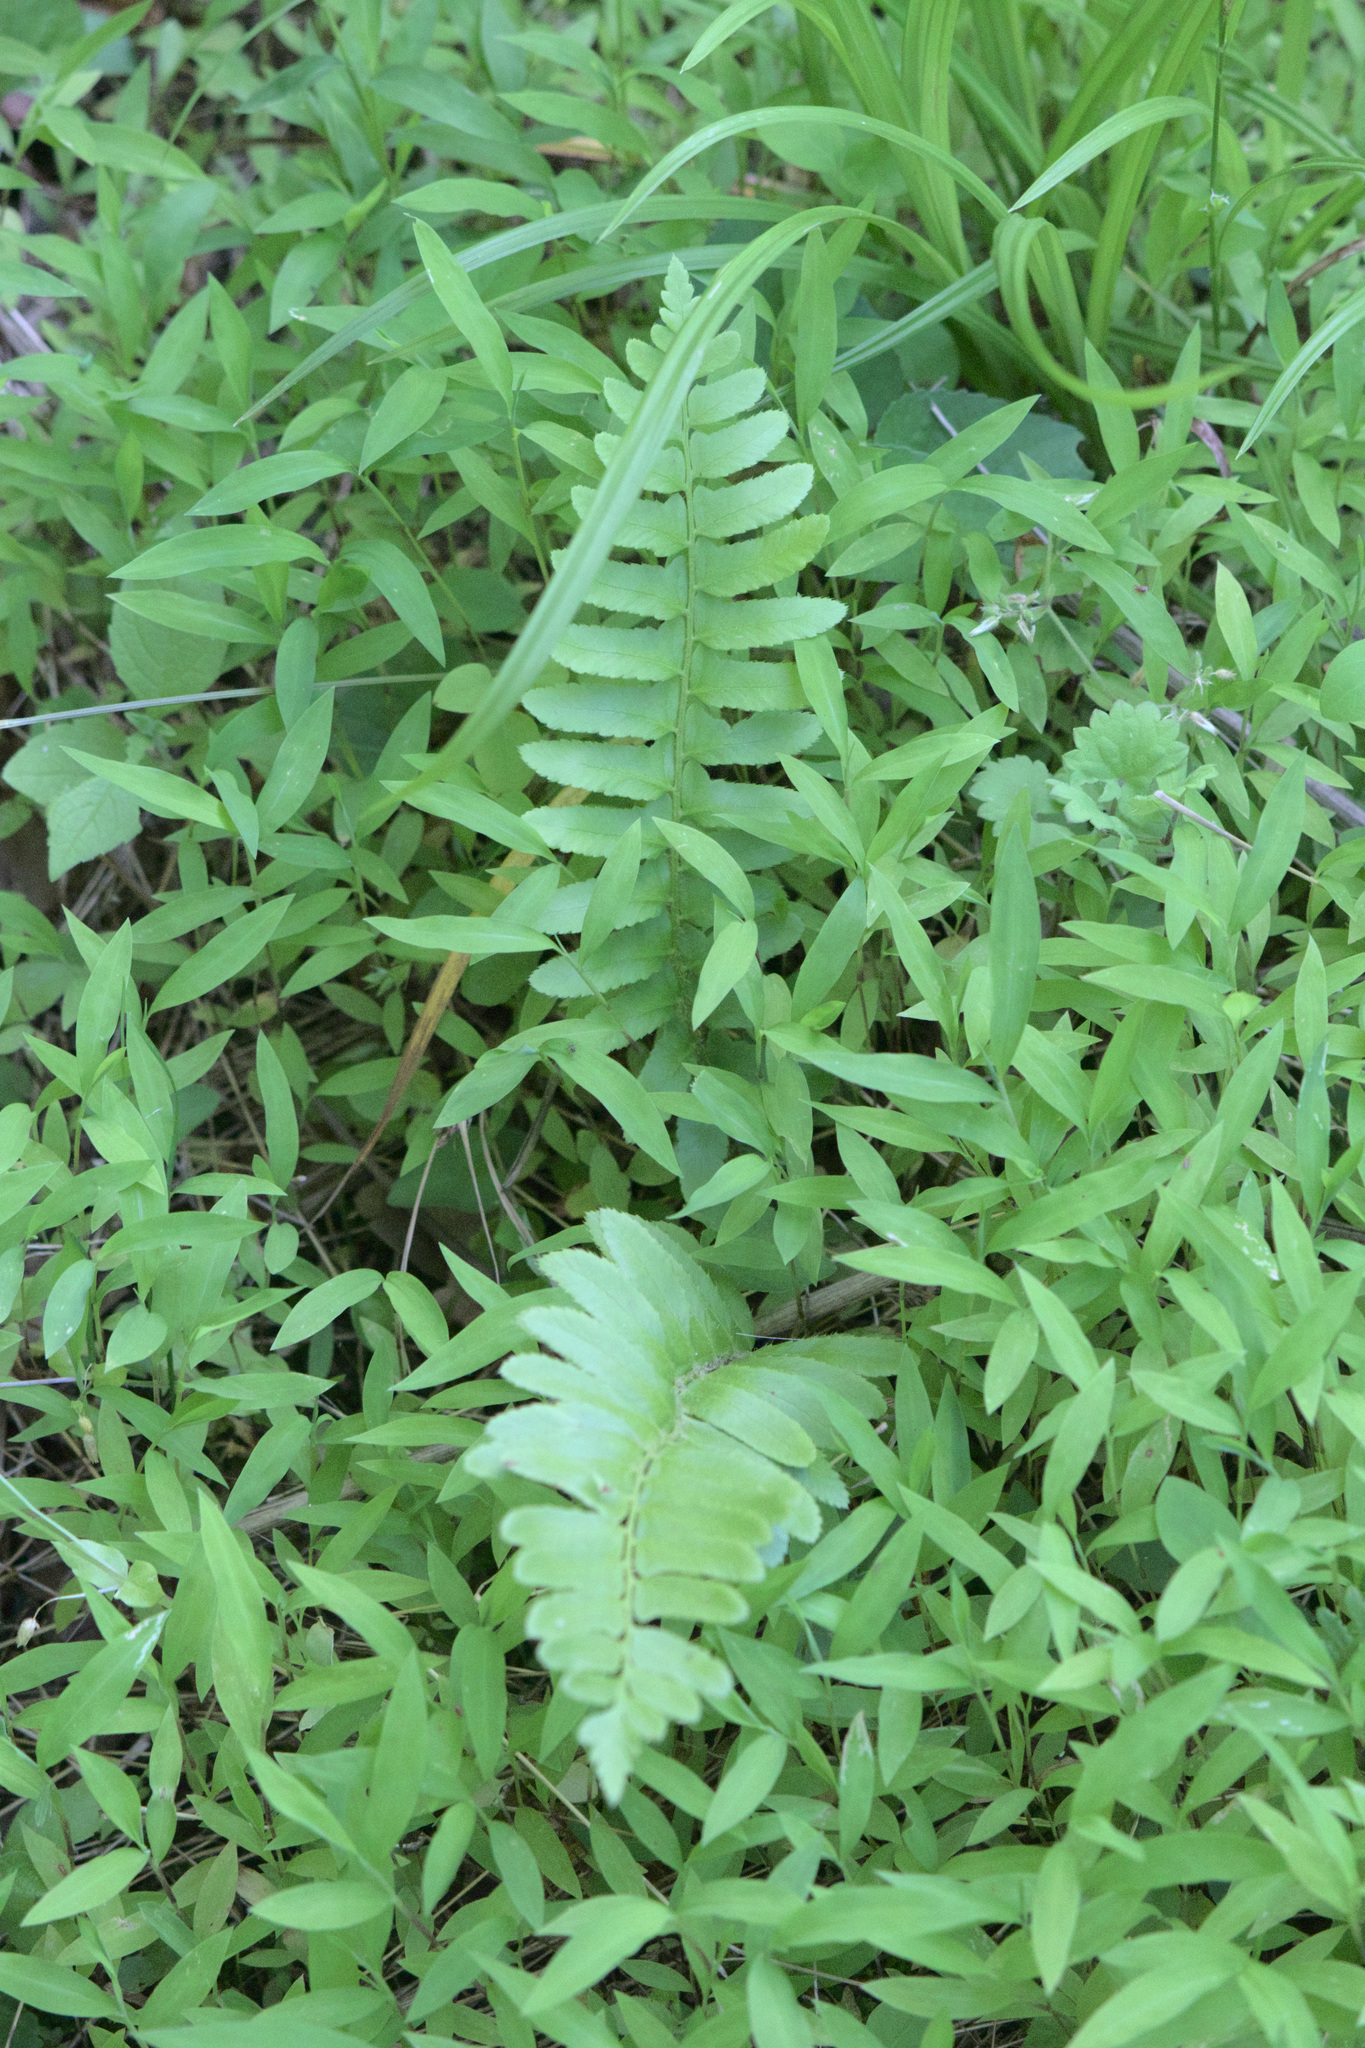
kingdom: Plantae
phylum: Tracheophyta
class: Polypodiopsida
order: Polypodiales
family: Dryopteridaceae
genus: Polystichum
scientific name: Polystichum acrostichoides
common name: Christmas fern
